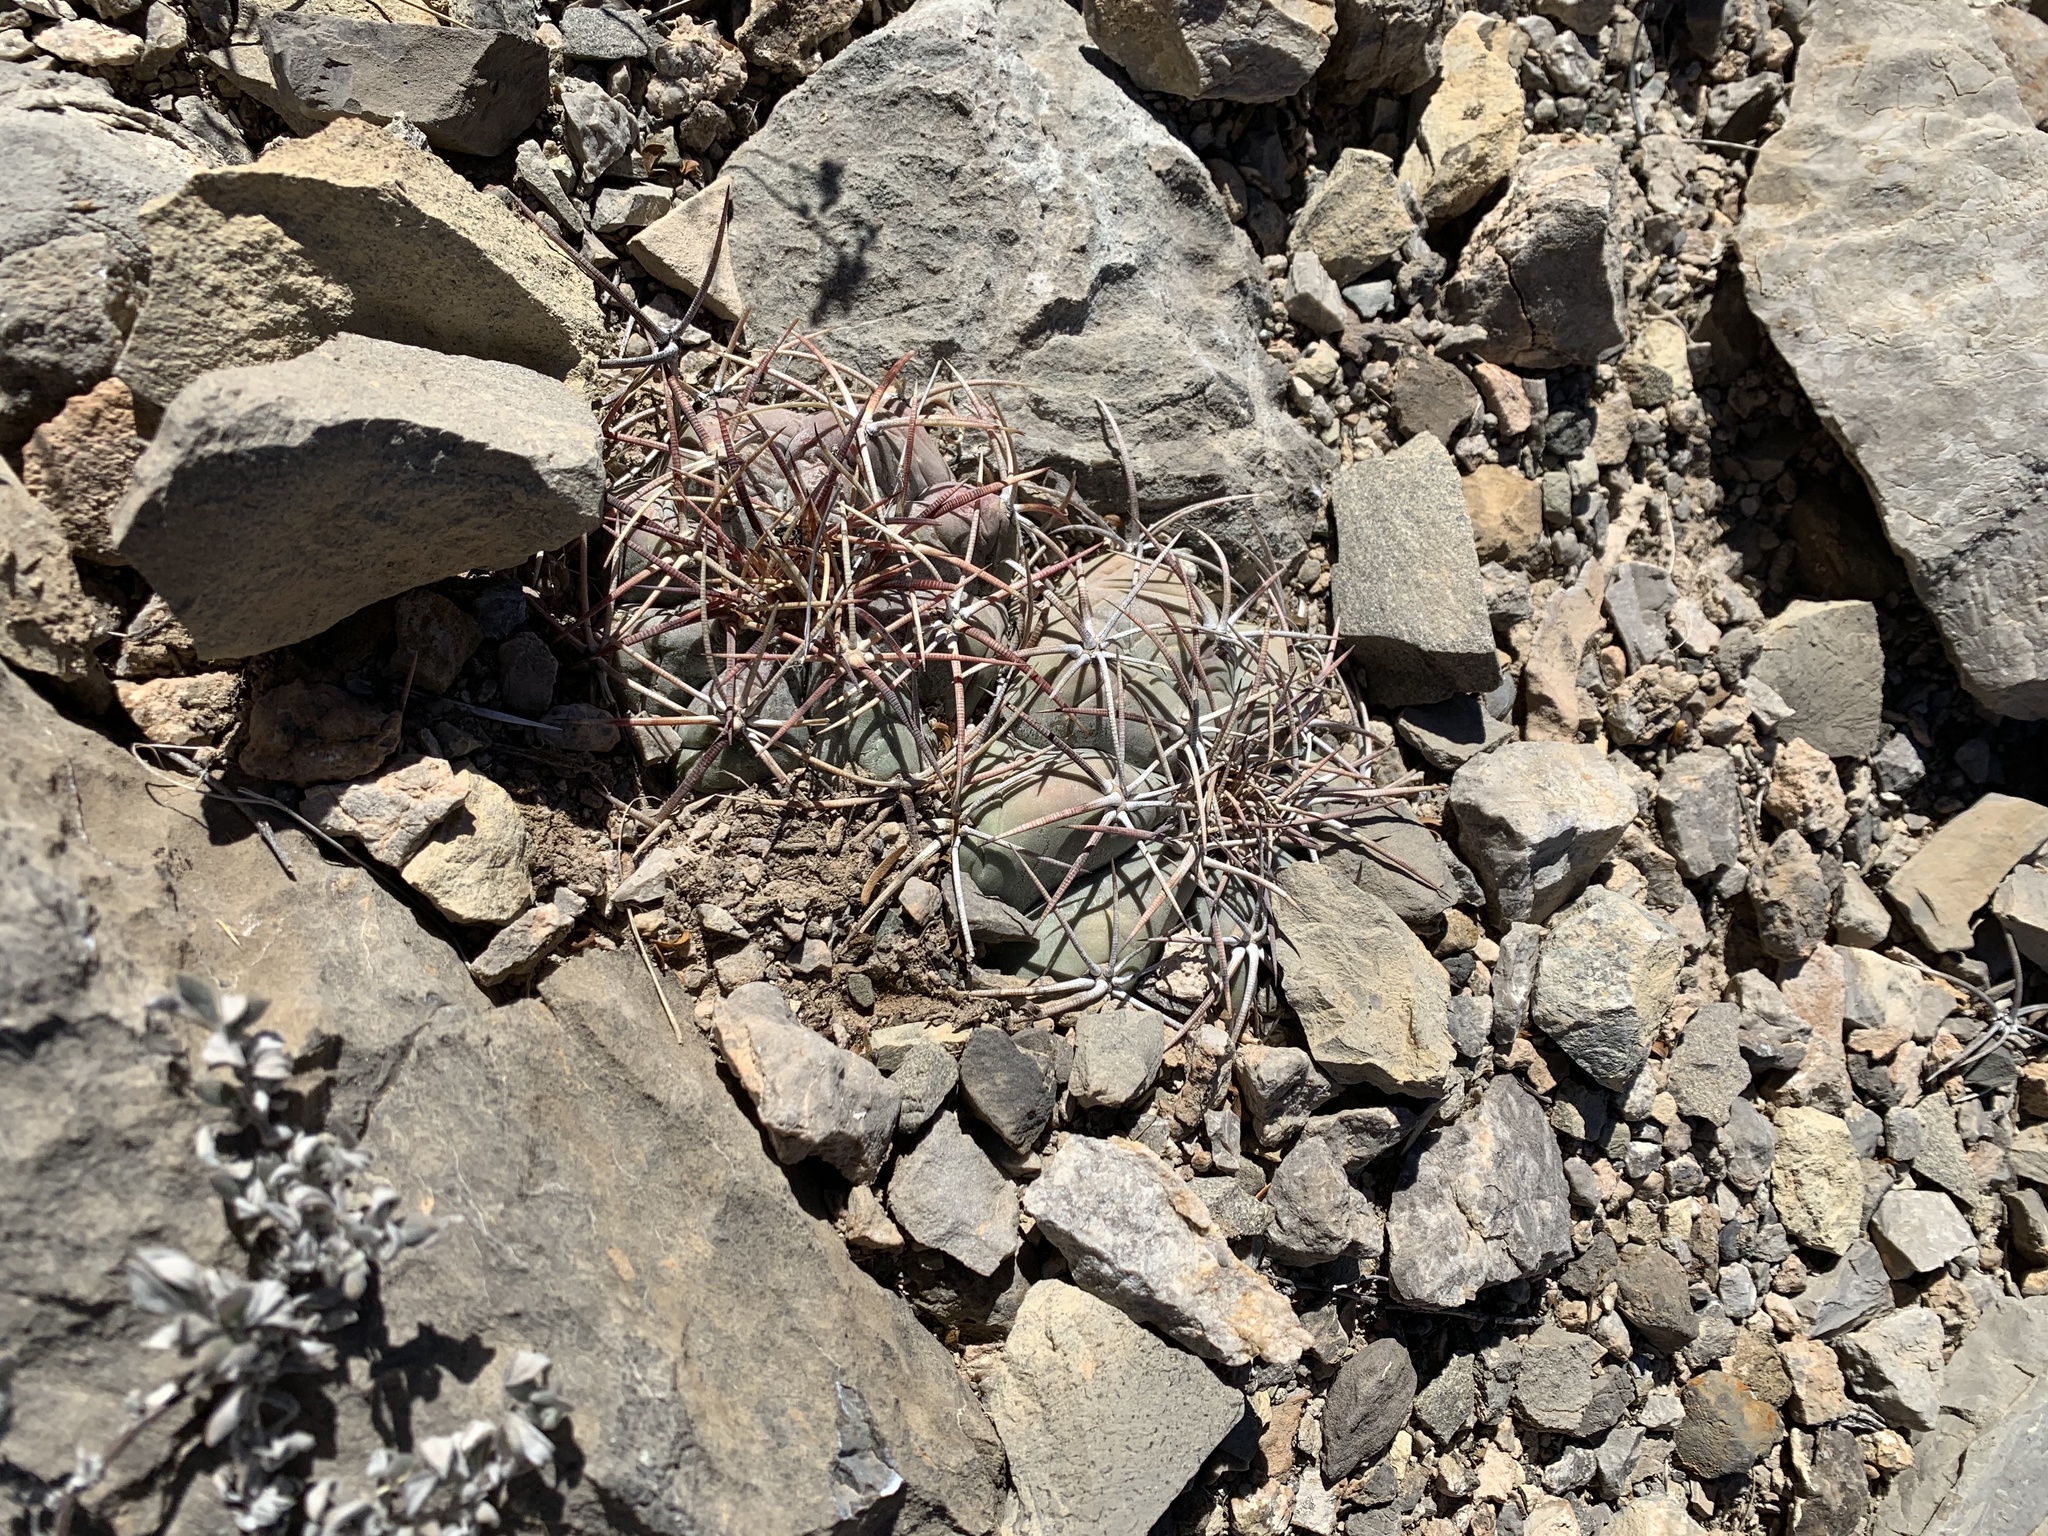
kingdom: Plantae
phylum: Tracheophyta
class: Magnoliopsida
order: Caryophyllales
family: Cactaceae
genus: Echinocactus
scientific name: Echinocactus horizonthalonius
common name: Devilshead
